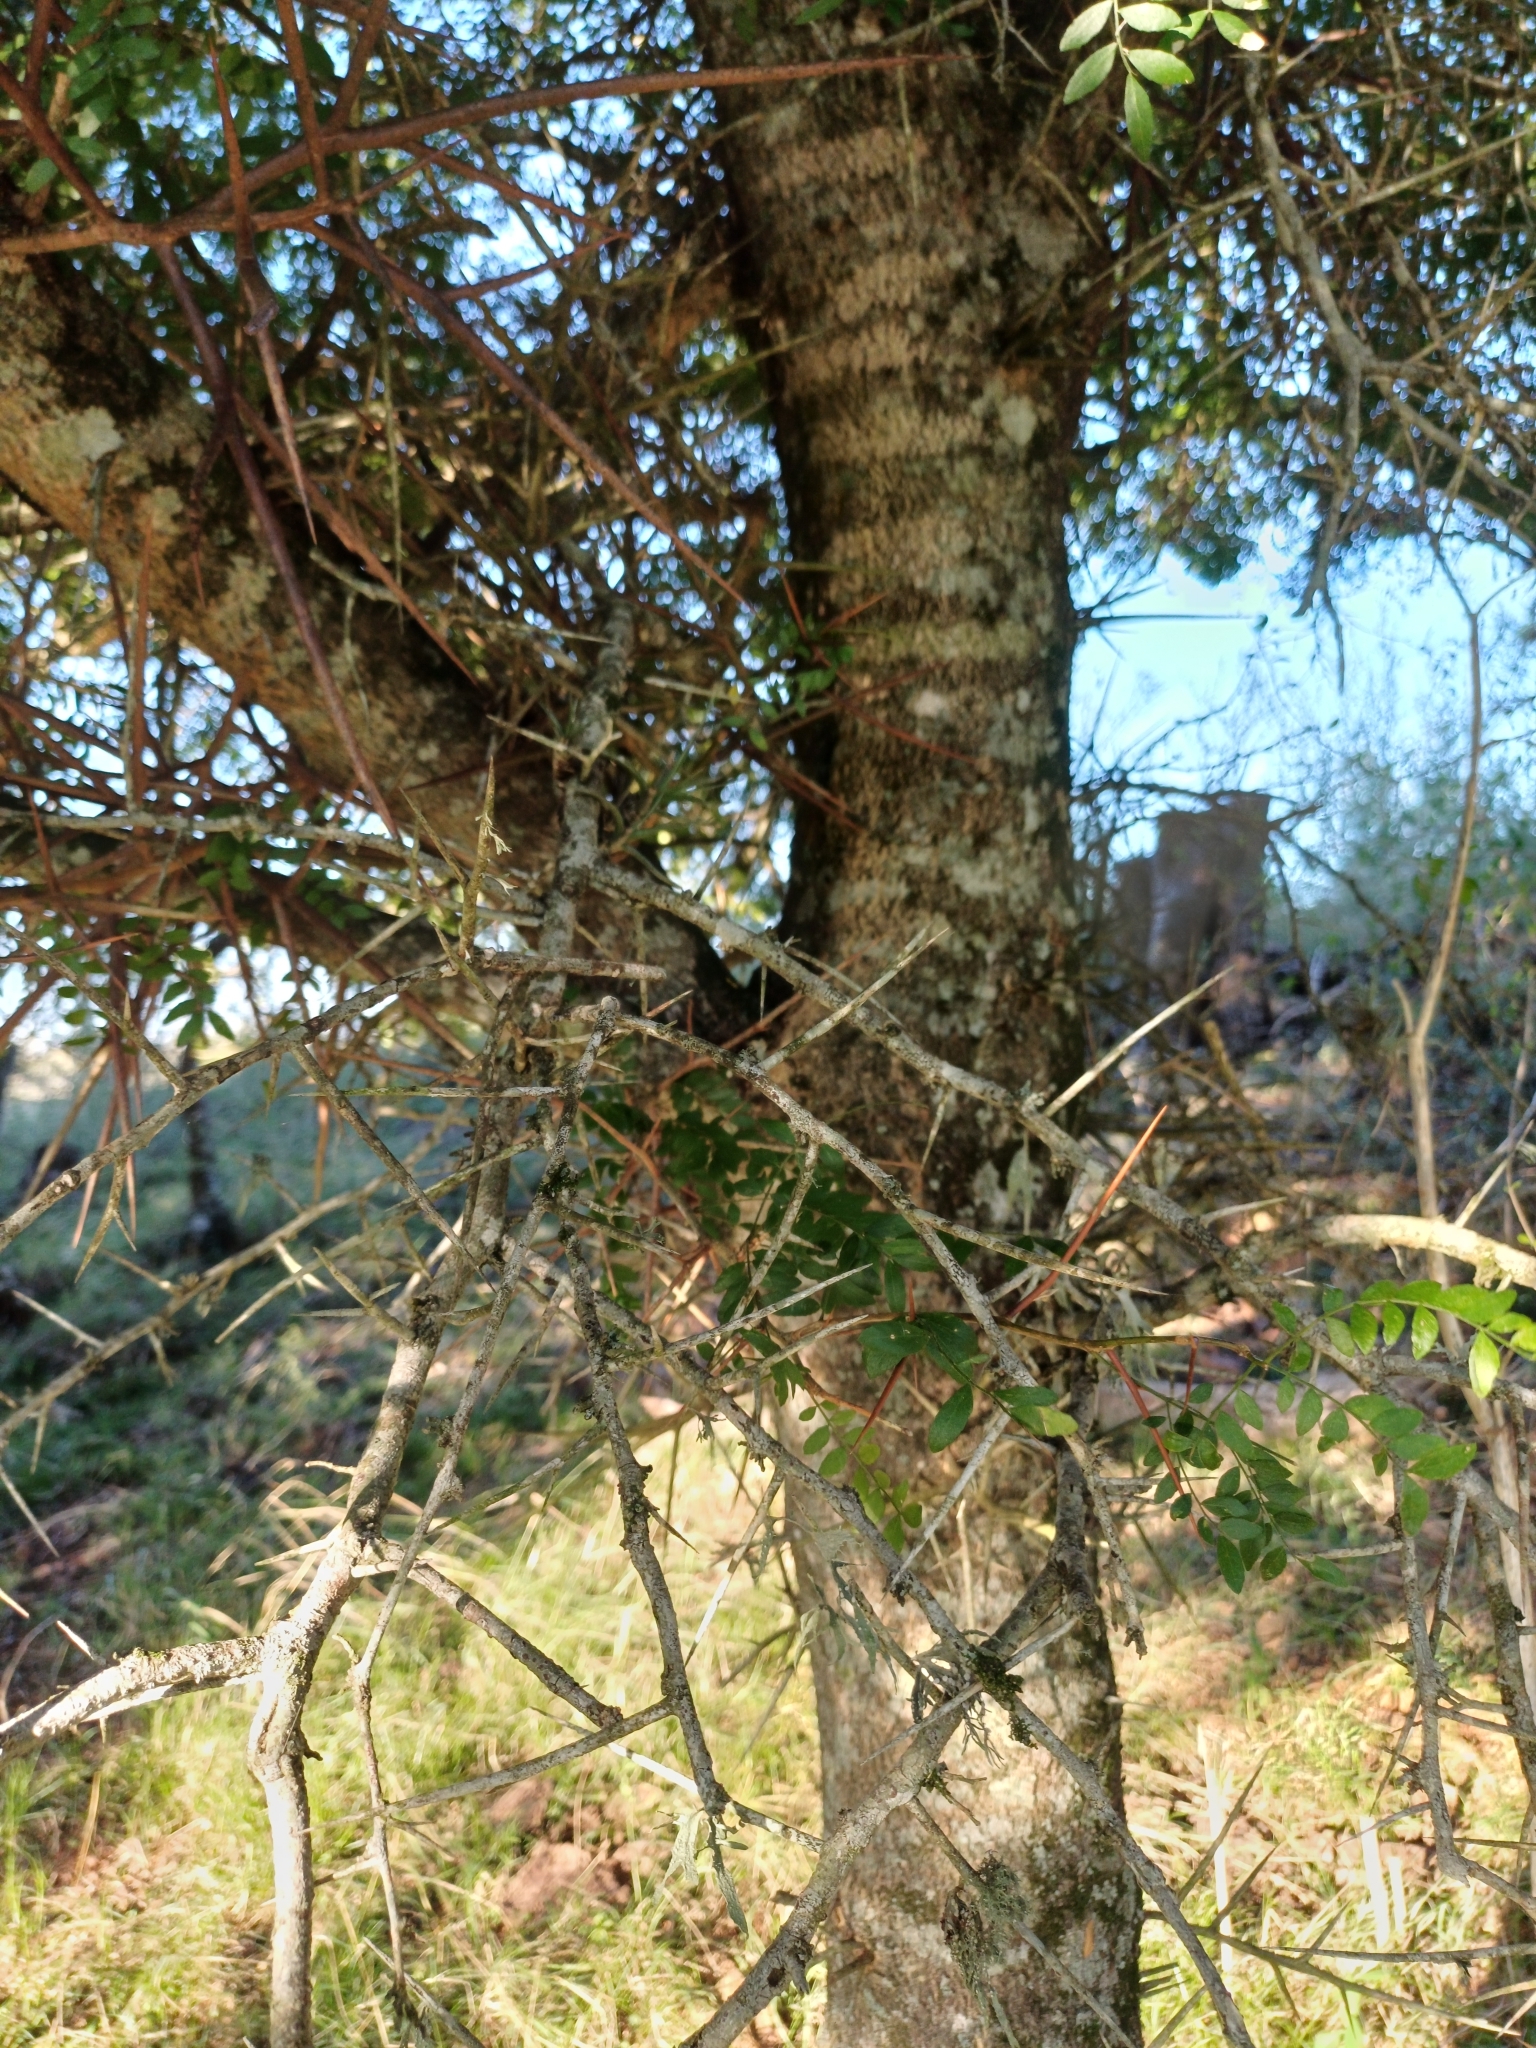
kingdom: Plantae
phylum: Tracheophyta
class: Magnoliopsida
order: Fabales
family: Fabaceae
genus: Gleditsia
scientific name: Gleditsia amorphoides
